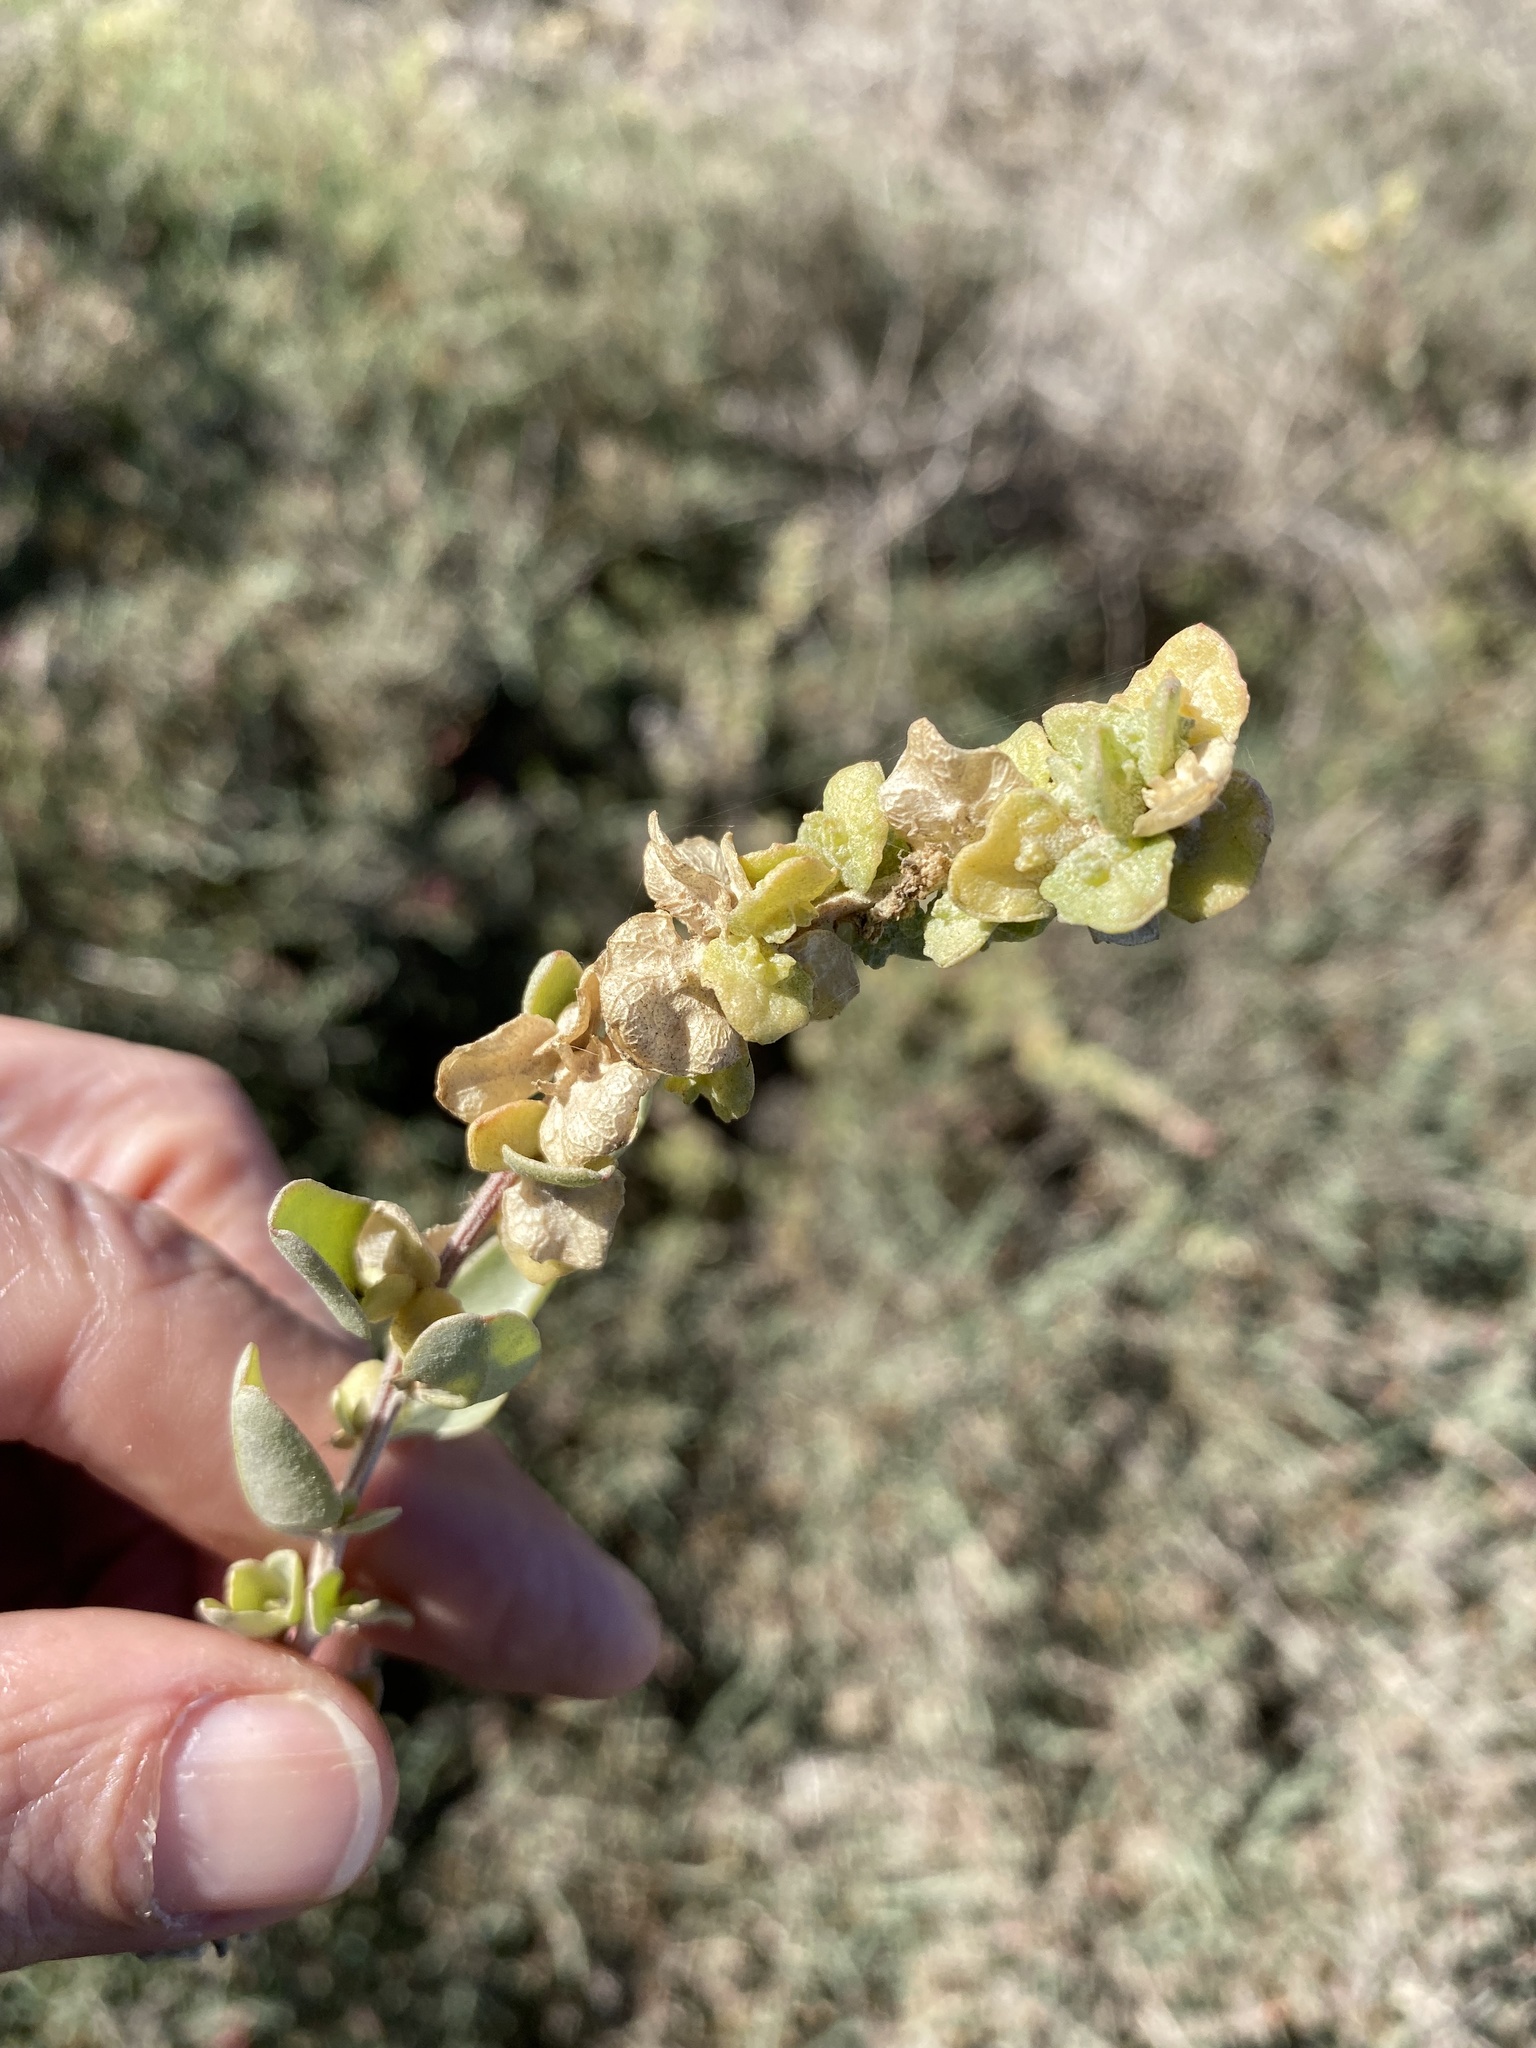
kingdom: Plantae
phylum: Tracheophyta
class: Magnoliopsida
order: Caryophyllales
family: Amaranthaceae
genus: Atriplex
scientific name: Atriplex vestita
